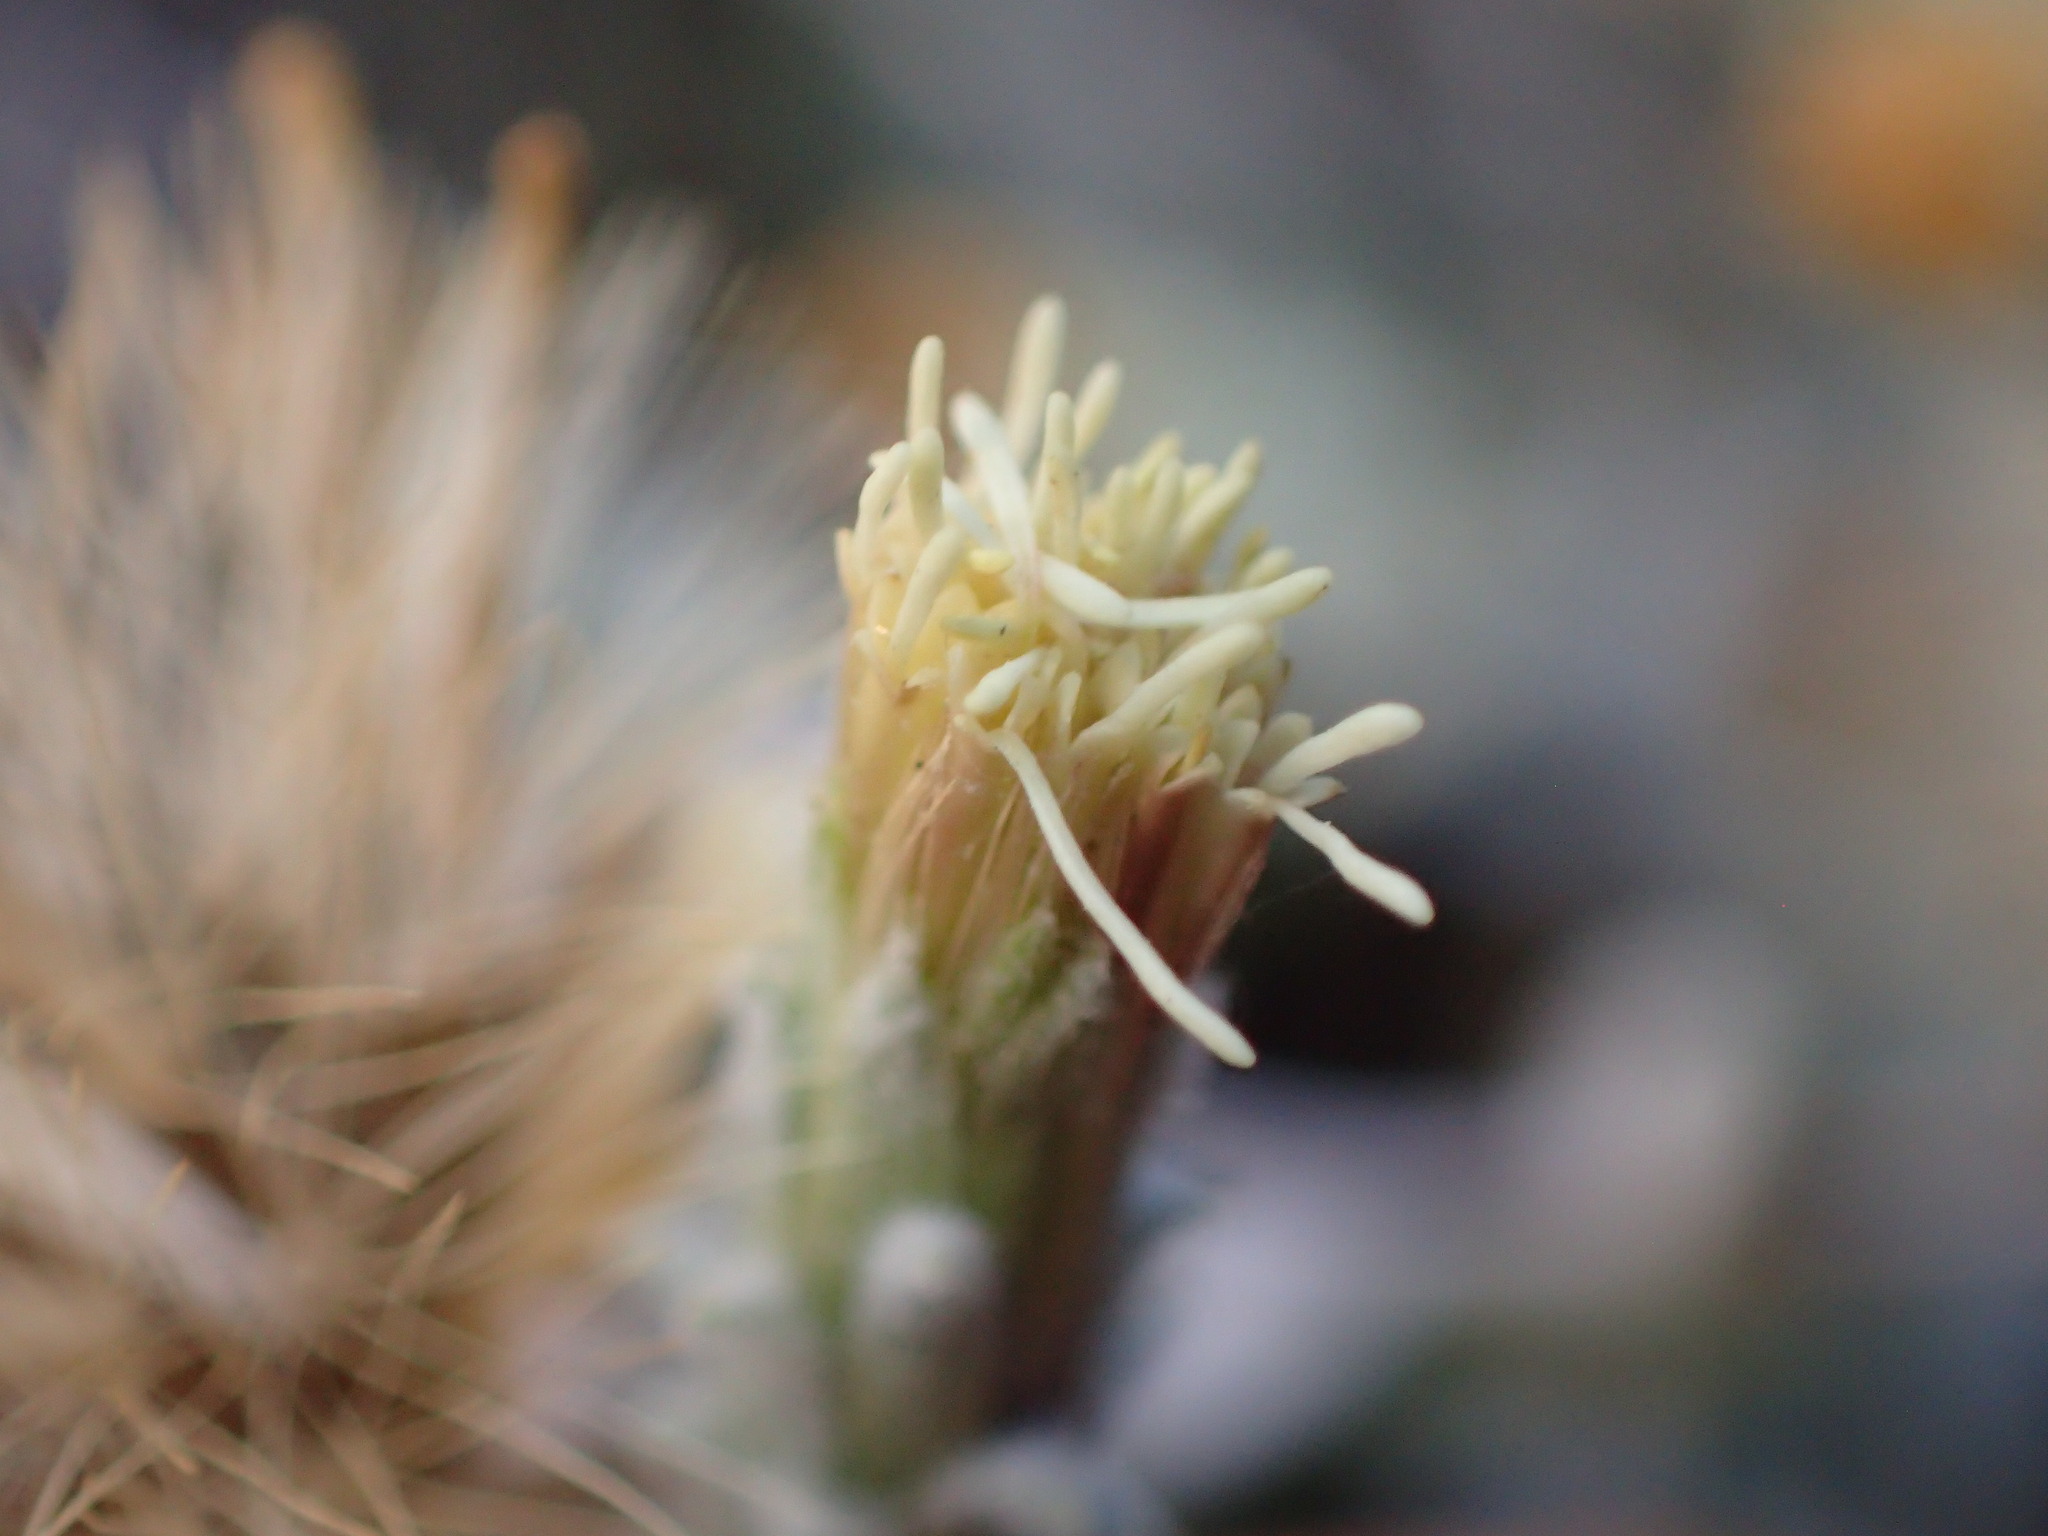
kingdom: Plantae
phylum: Tracheophyta
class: Magnoliopsida
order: Asterales
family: Asteraceae
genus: Brickellia
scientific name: Brickellia nevinii
